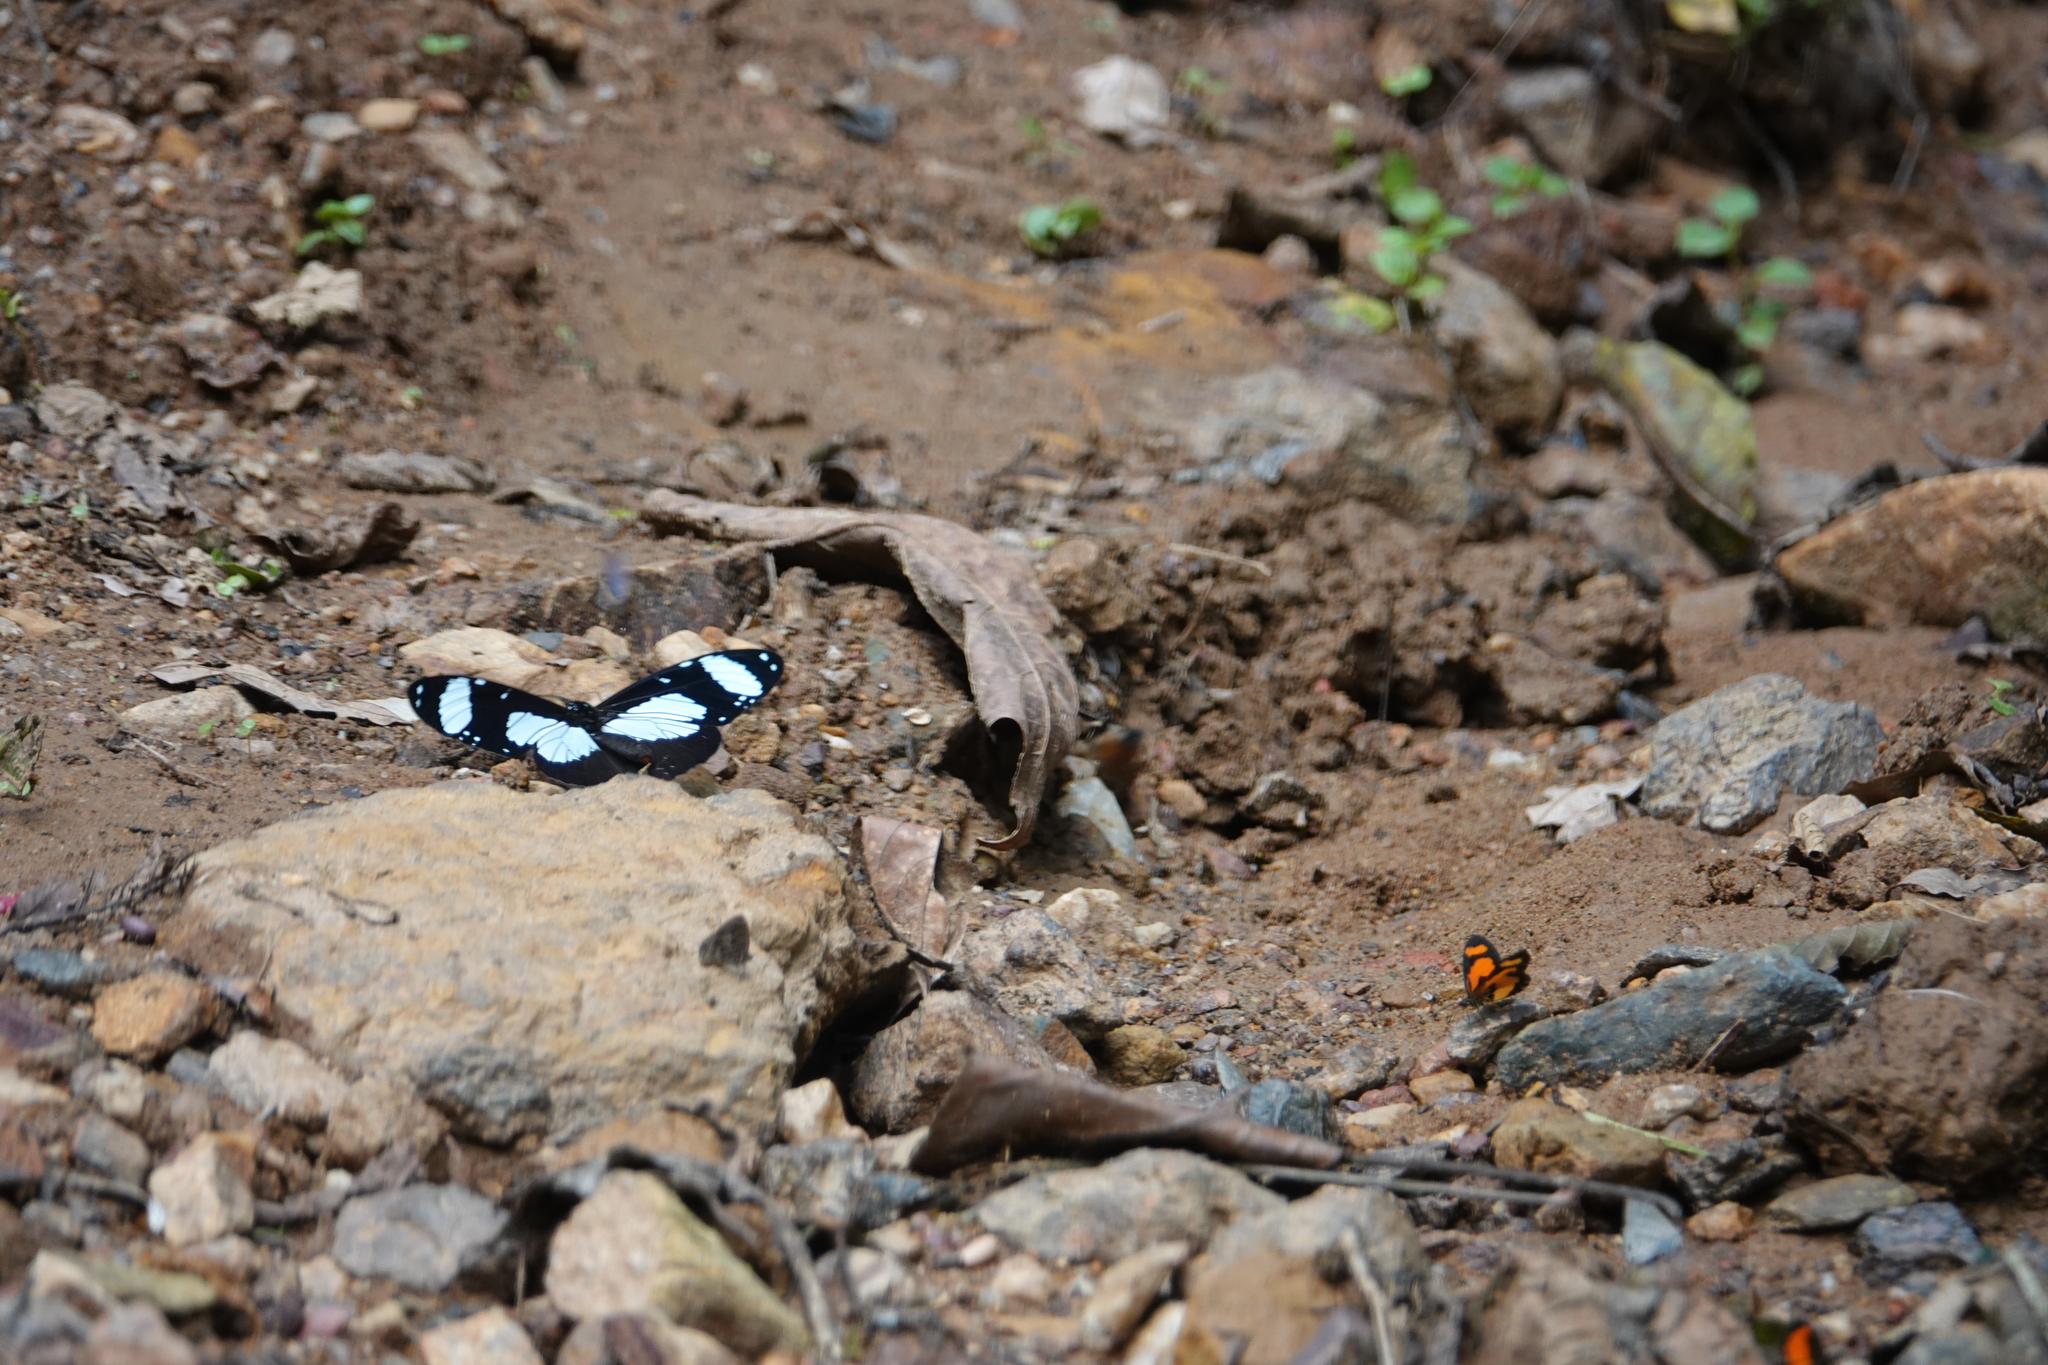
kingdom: Animalia
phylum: Arthropoda
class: Insecta
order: Lepidoptera
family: Nymphalidae
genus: Amauris
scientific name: Amauris niavius
